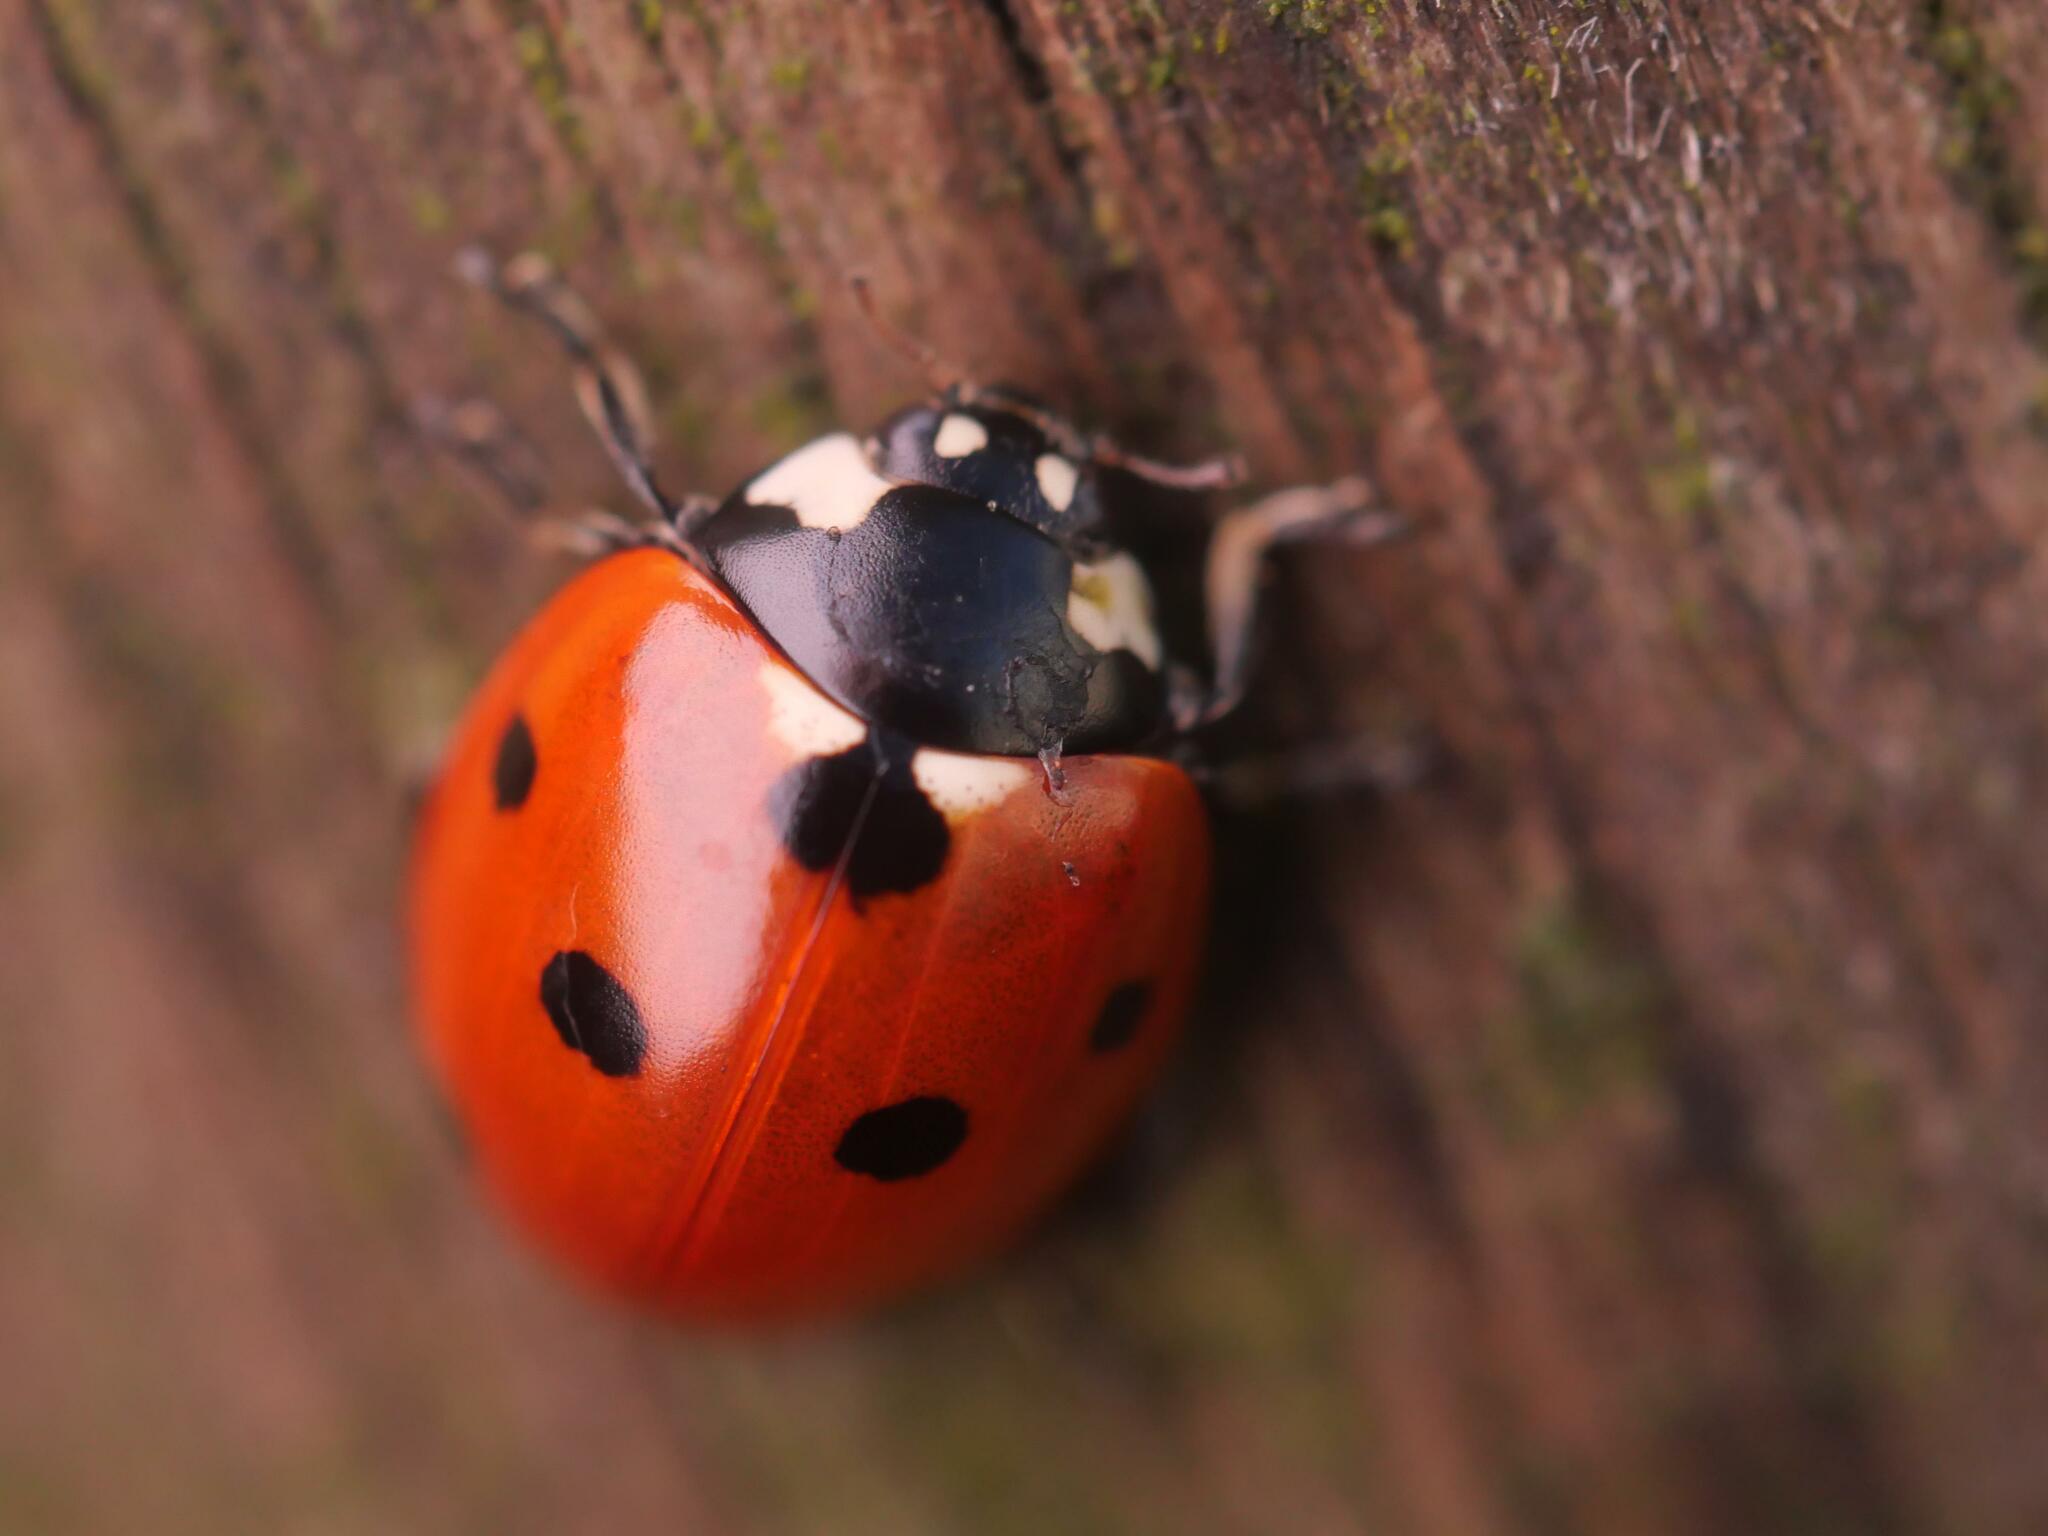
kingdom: Animalia
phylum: Arthropoda
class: Insecta
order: Coleoptera
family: Coccinellidae
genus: Coccinella
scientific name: Coccinella septempunctata
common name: Sevenspotted lady beetle
